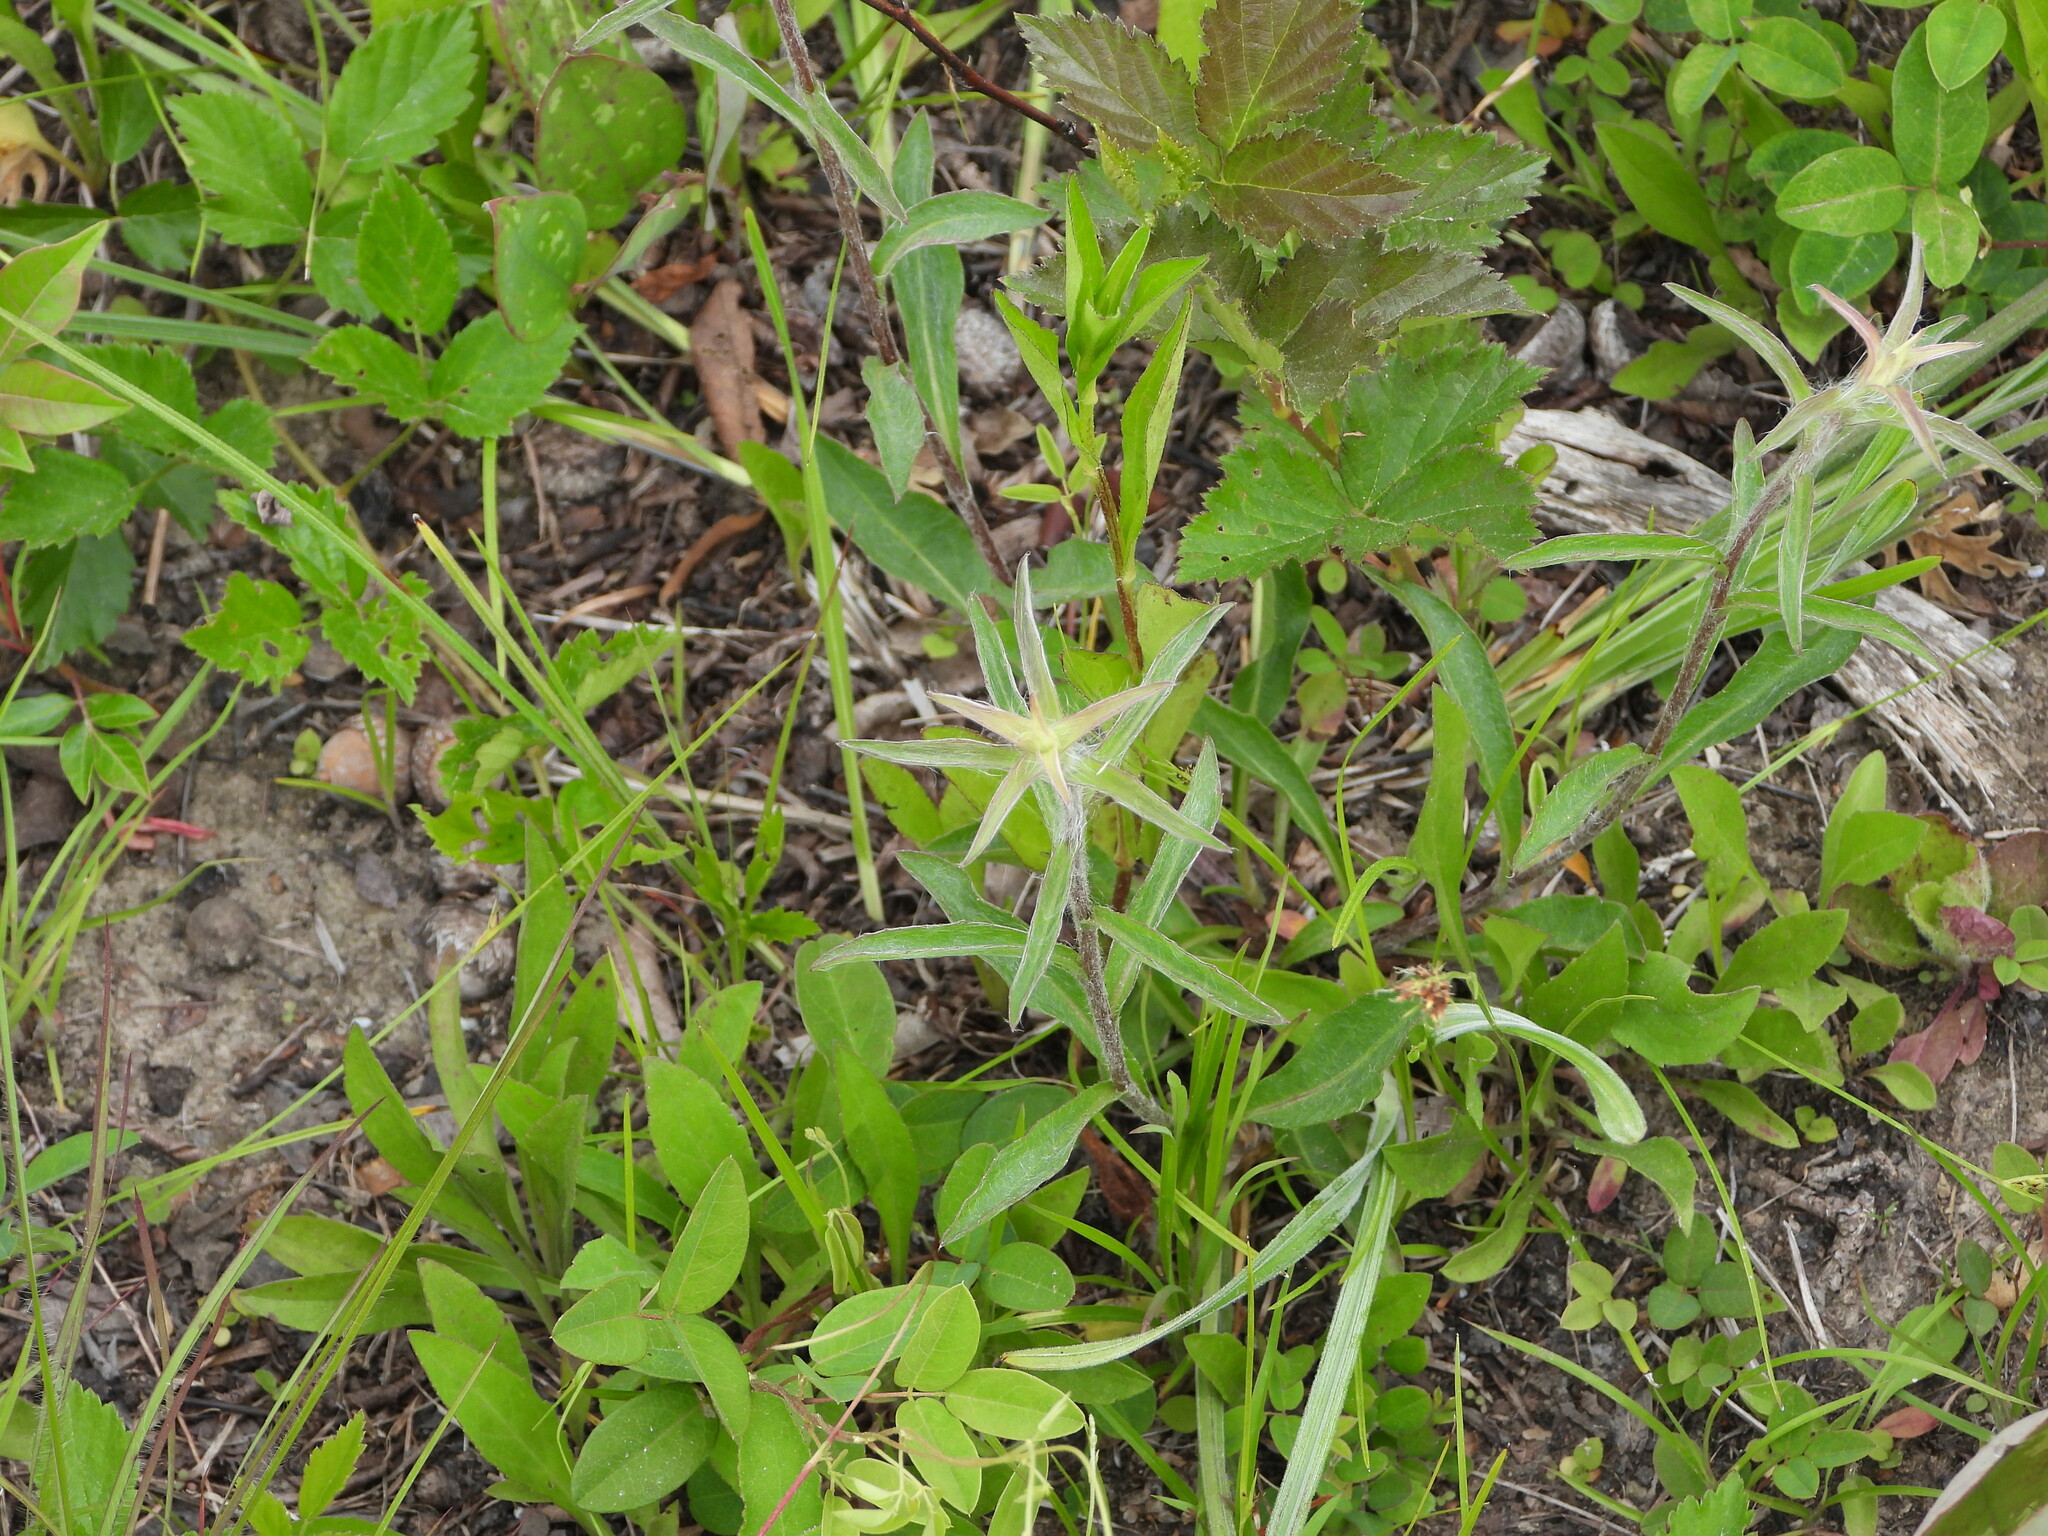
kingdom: Plantae
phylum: Tracheophyta
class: Magnoliopsida
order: Asterales
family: Asteraceae
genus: Chrysopsis
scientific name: Chrysopsis mariana
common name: Maryland golden-aster
